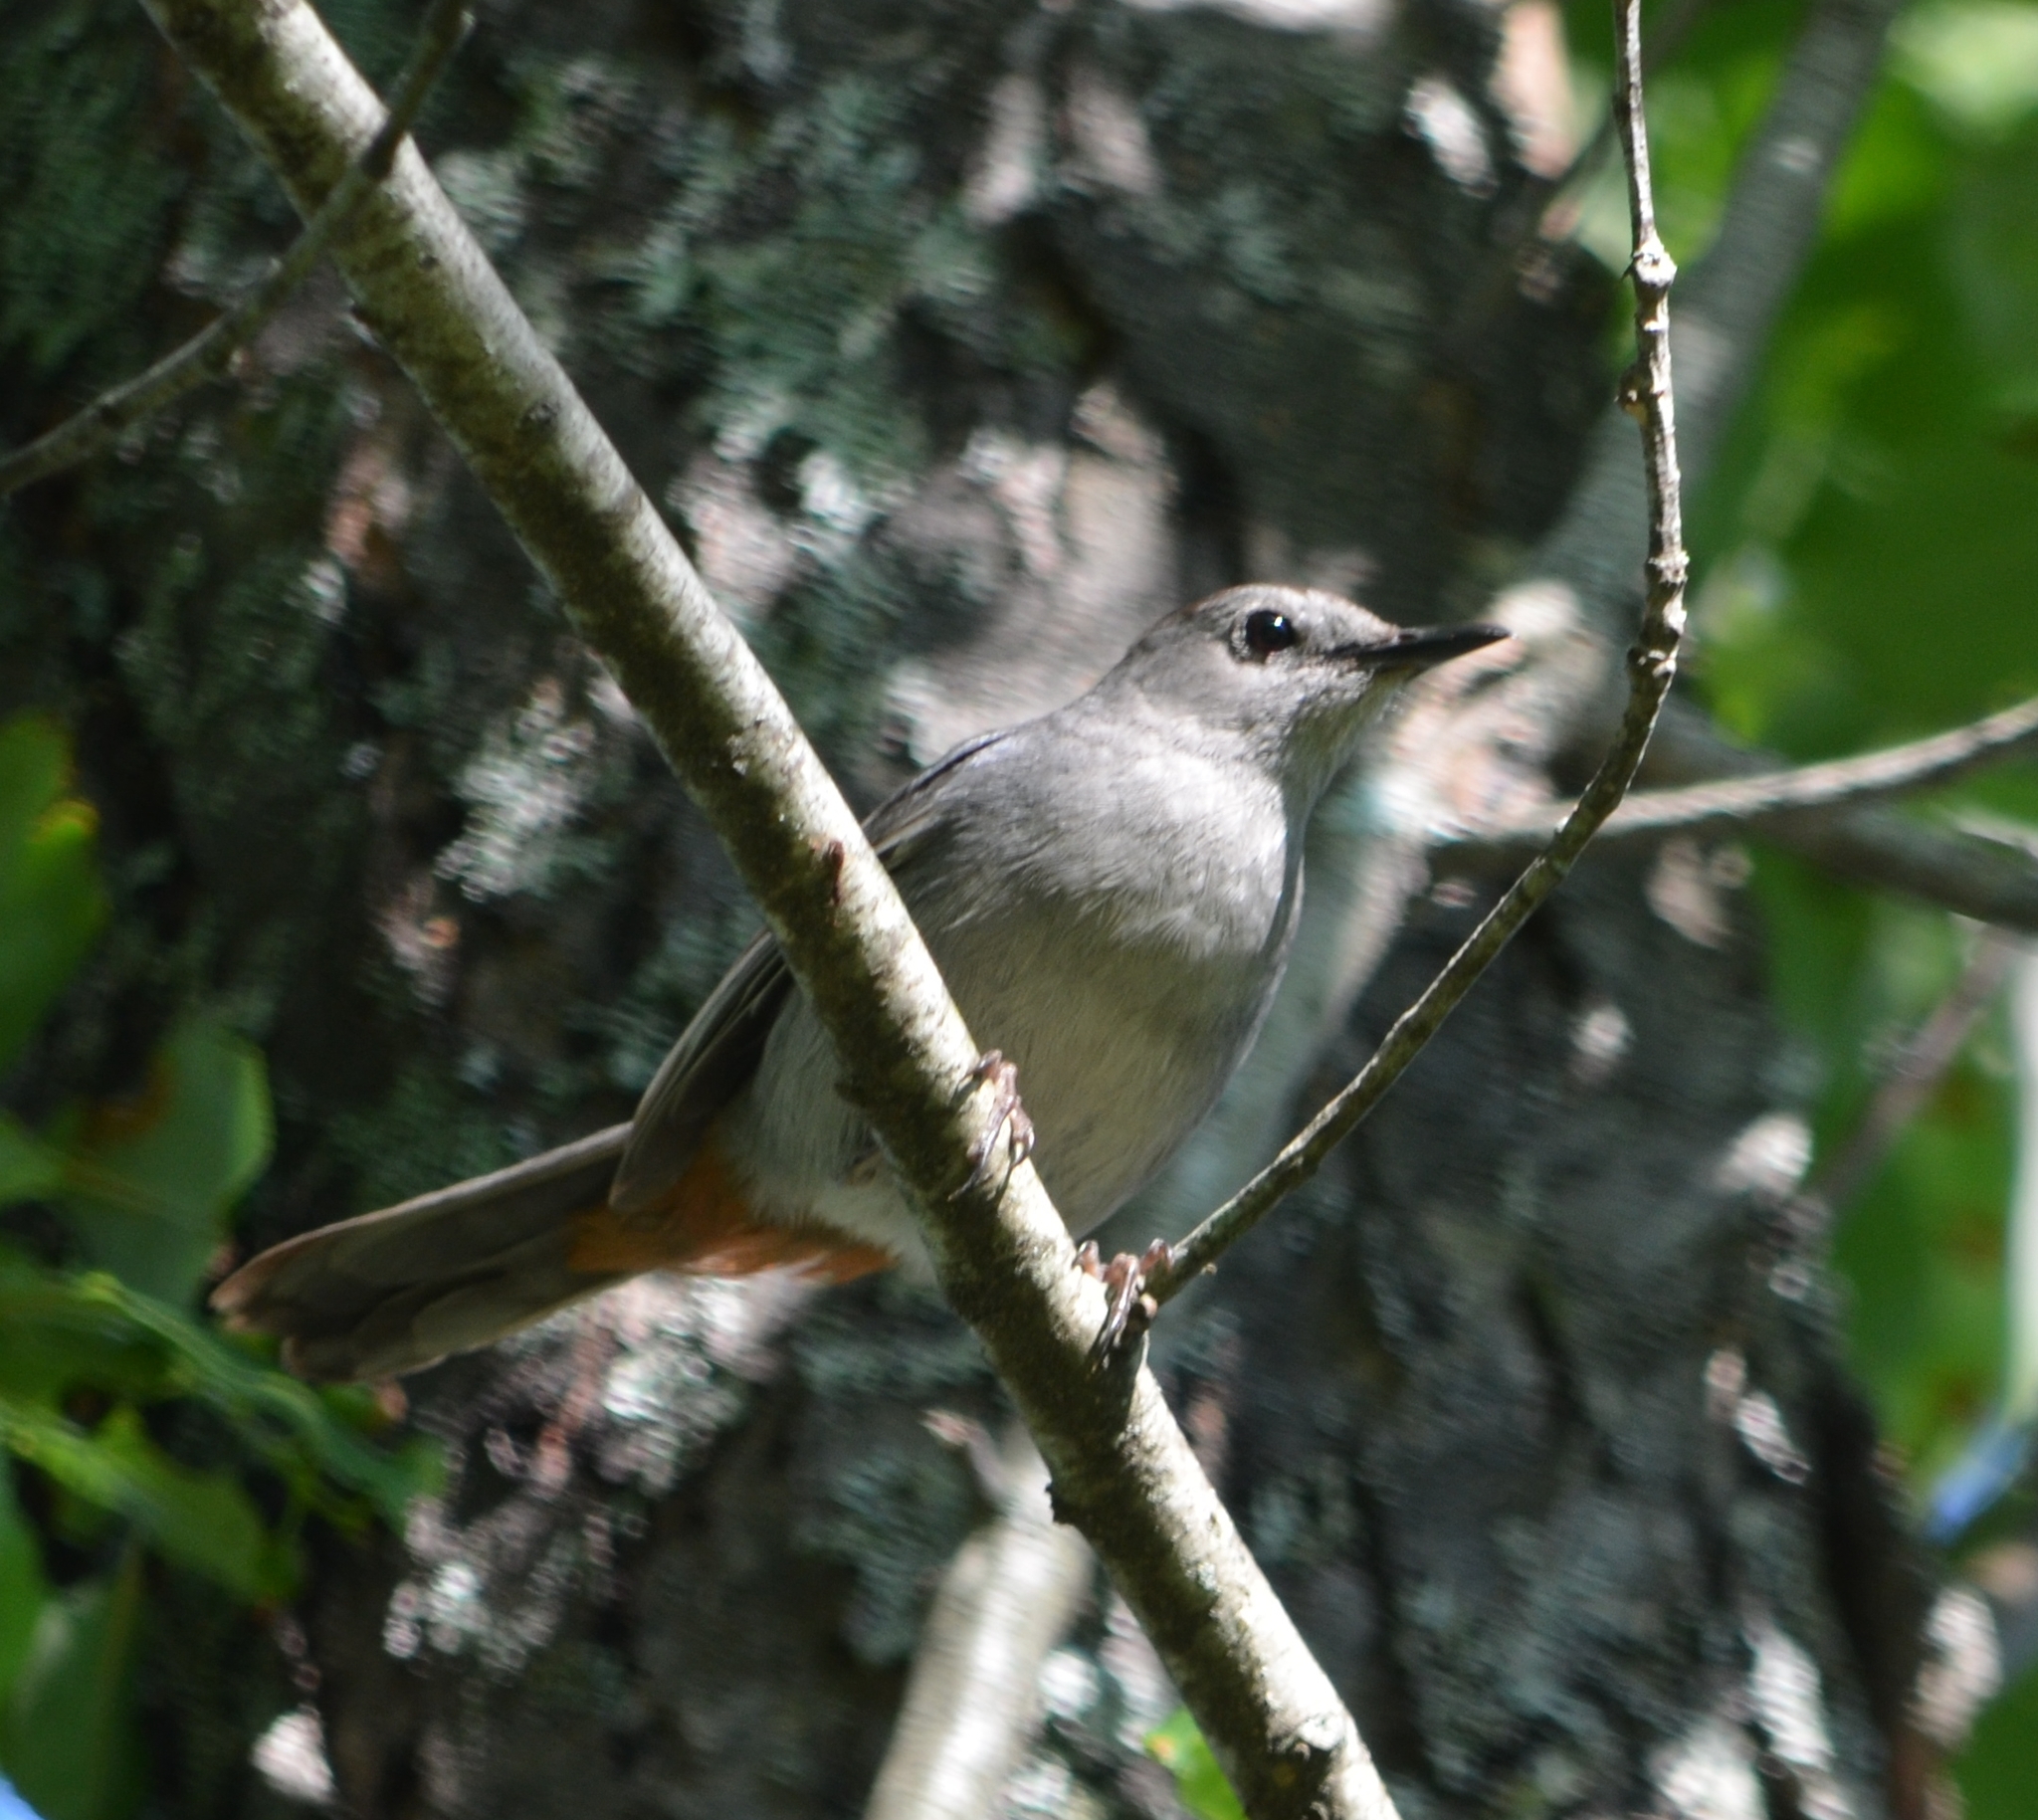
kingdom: Animalia
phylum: Chordata
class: Aves
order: Passeriformes
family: Mimidae
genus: Dumetella
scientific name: Dumetella carolinensis
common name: Gray catbird
